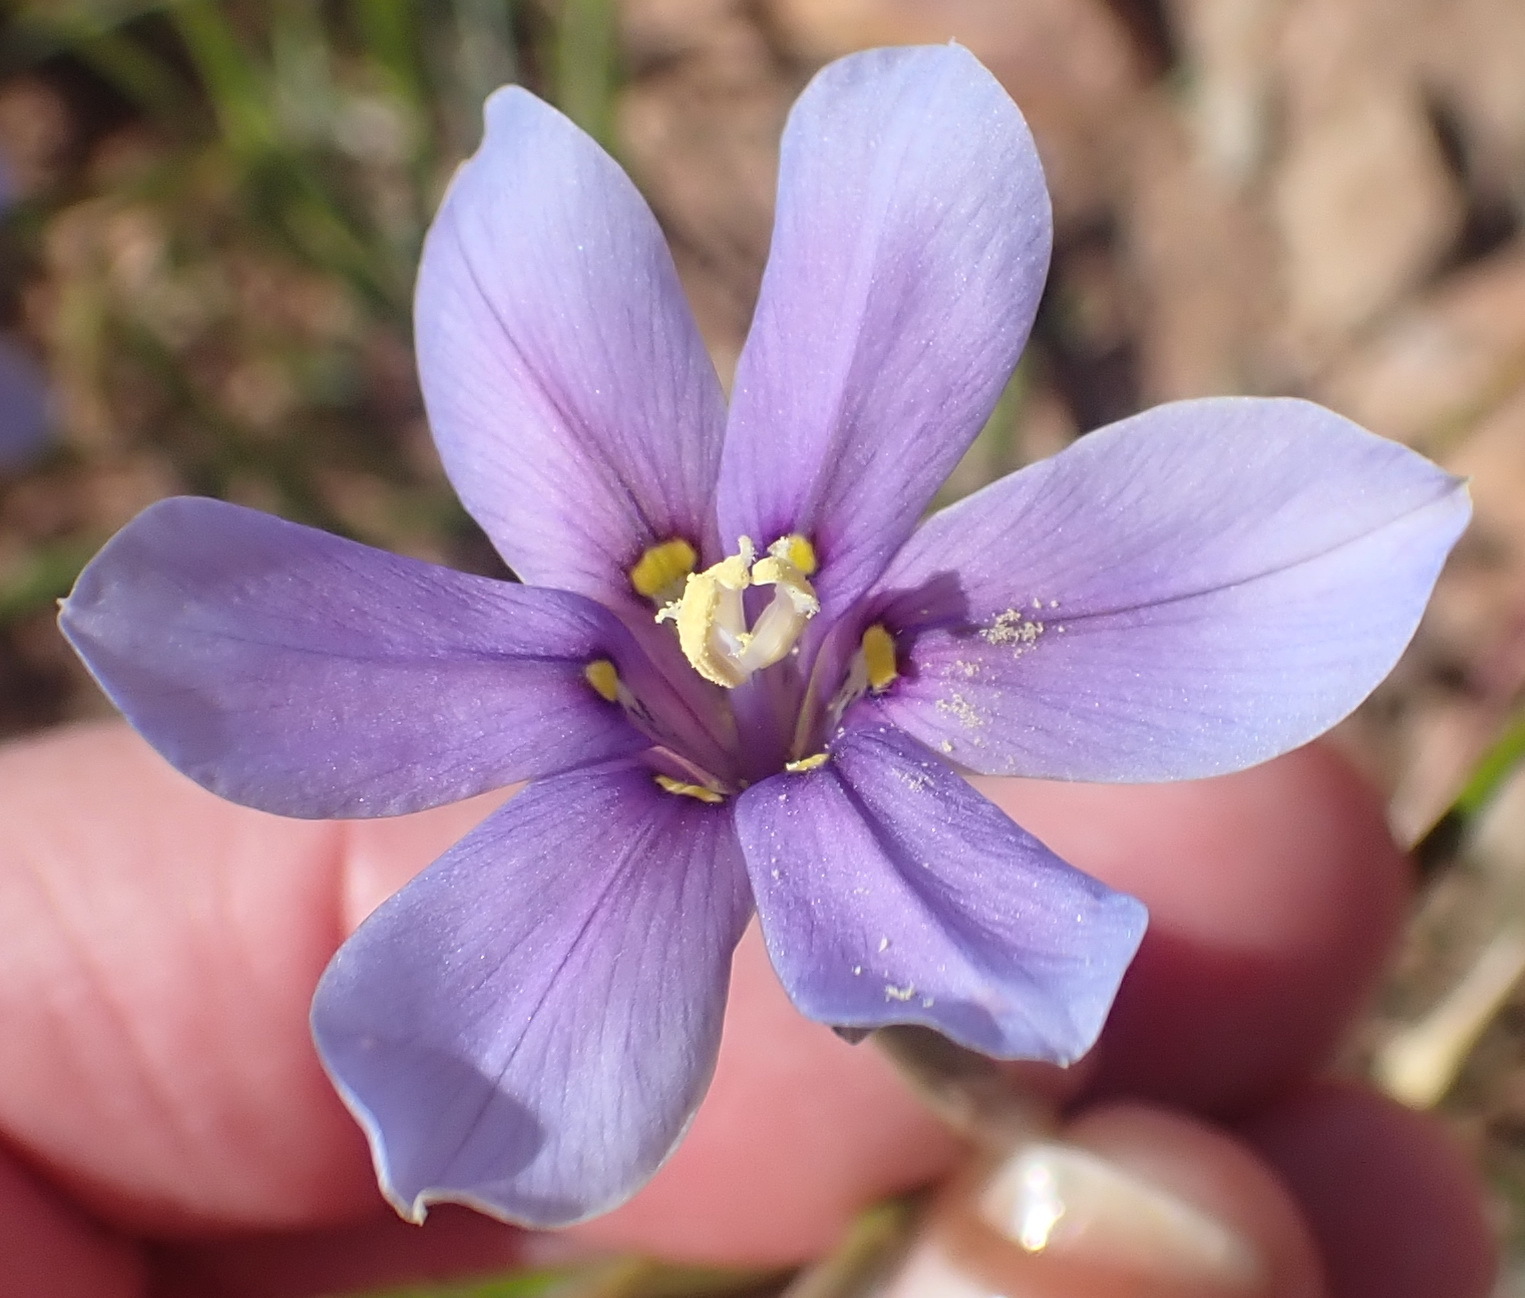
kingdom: Plantae
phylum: Tracheophyta
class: Liliopsida
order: Asparagales
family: Iridaceae
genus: Moraea
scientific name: Moraea polyanthos
